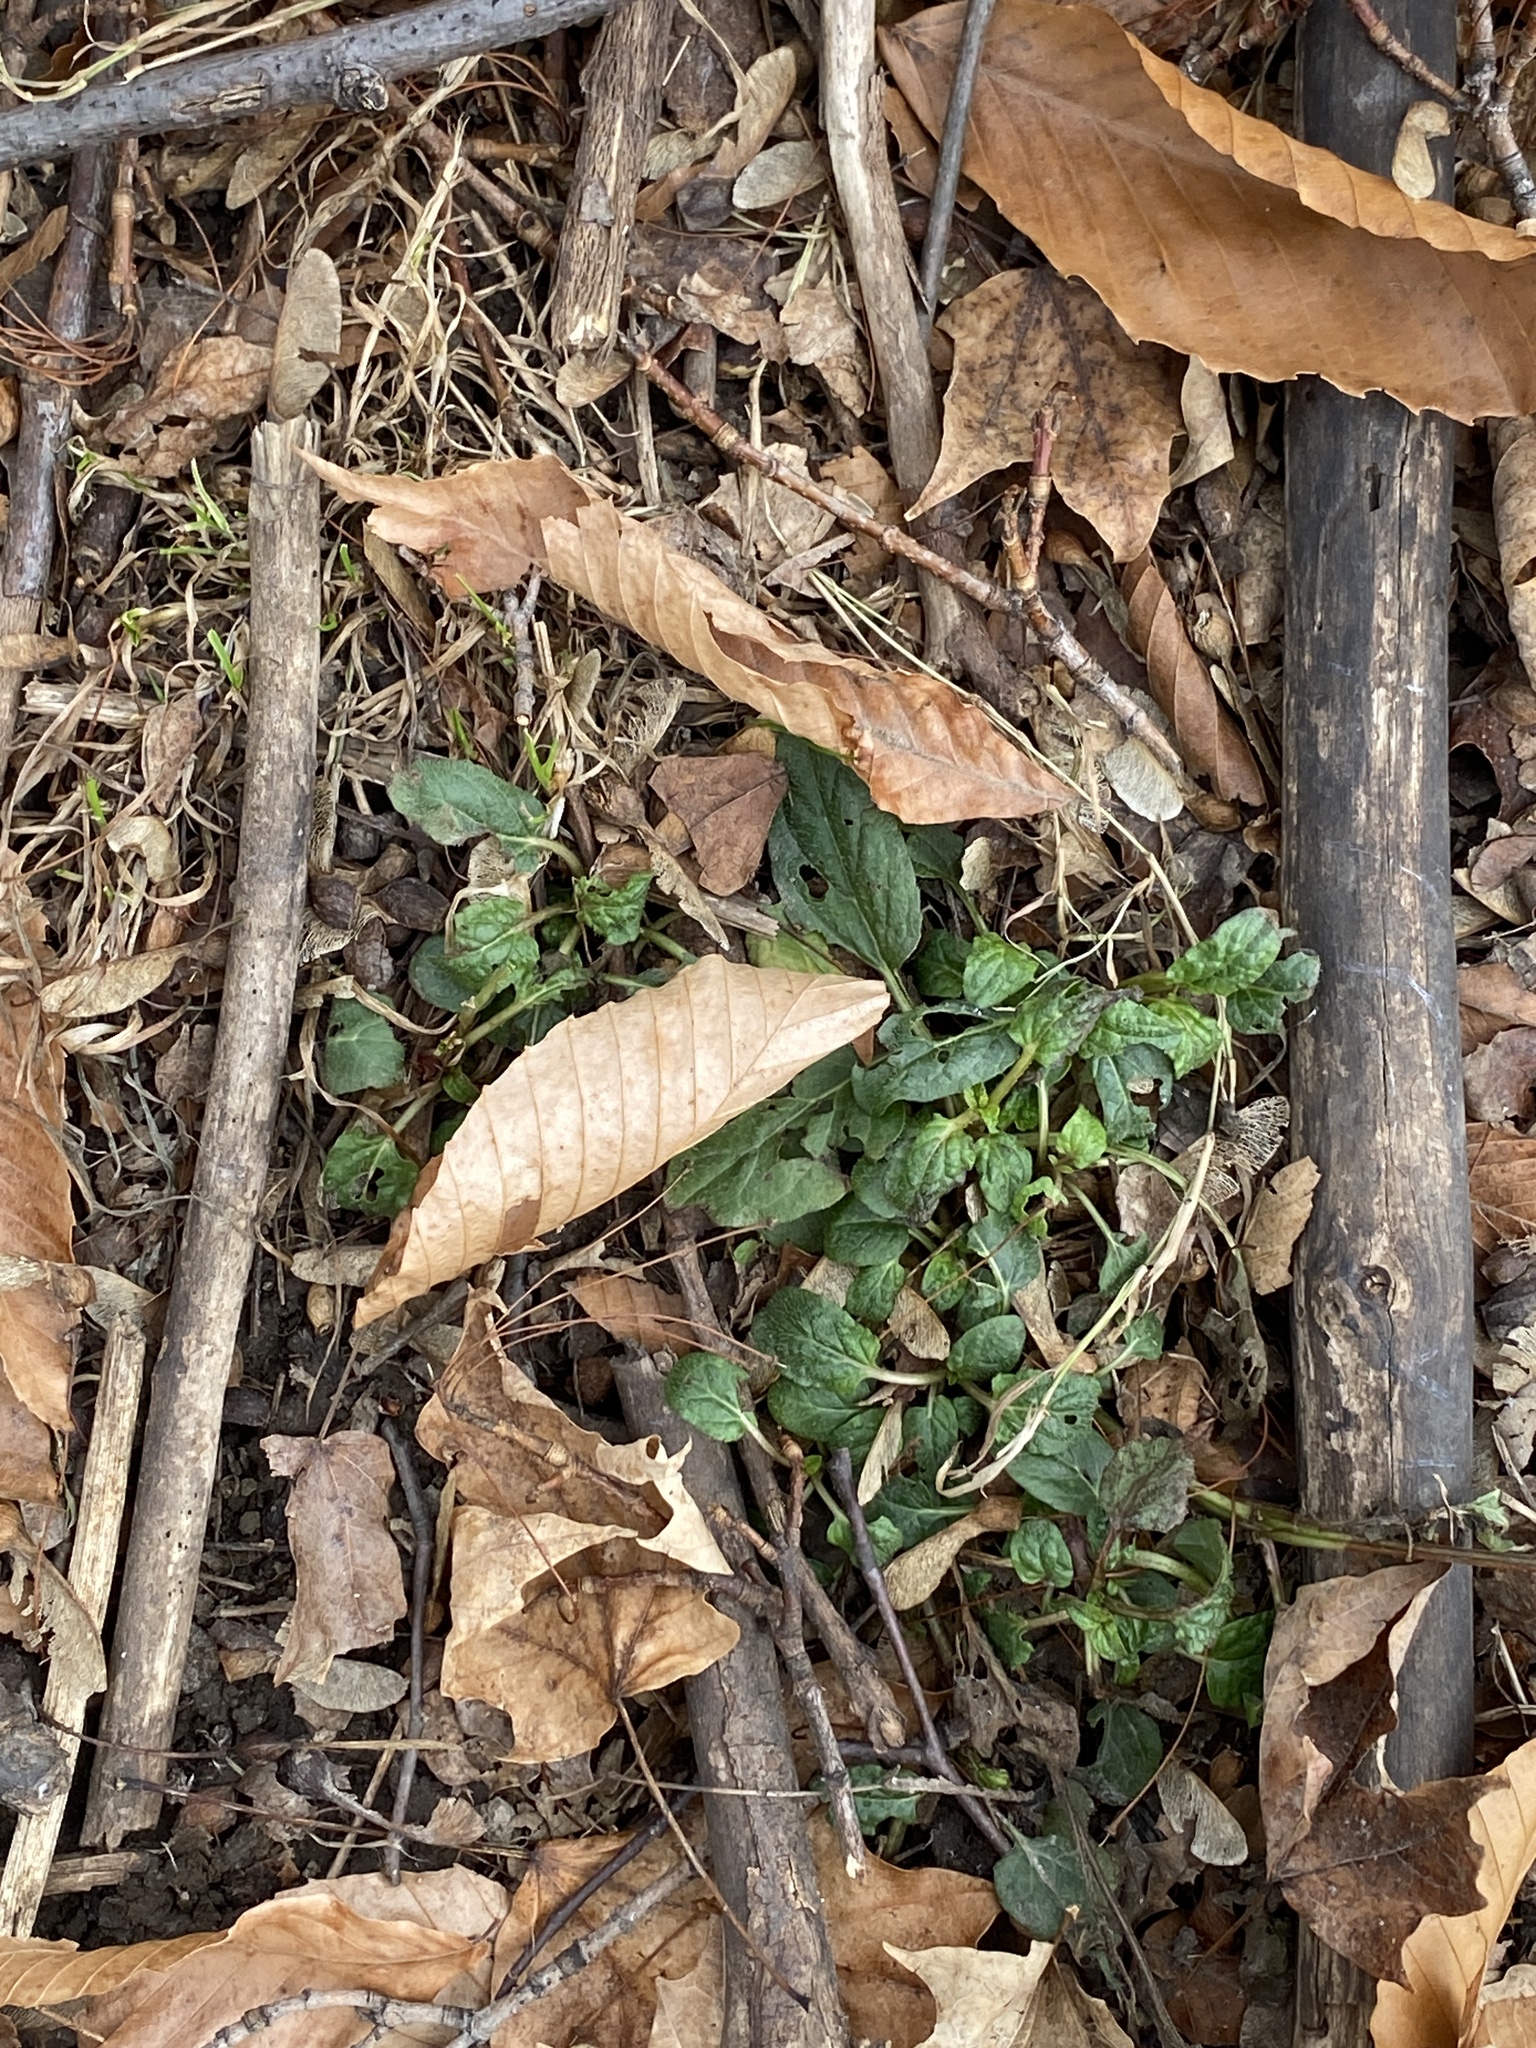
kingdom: Plantae
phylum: Tracheophyta
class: Magnoliopsida
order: Lamiales
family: Lamiaceae
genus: Prunella
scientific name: Prunella vulgaris
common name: Heal-all
